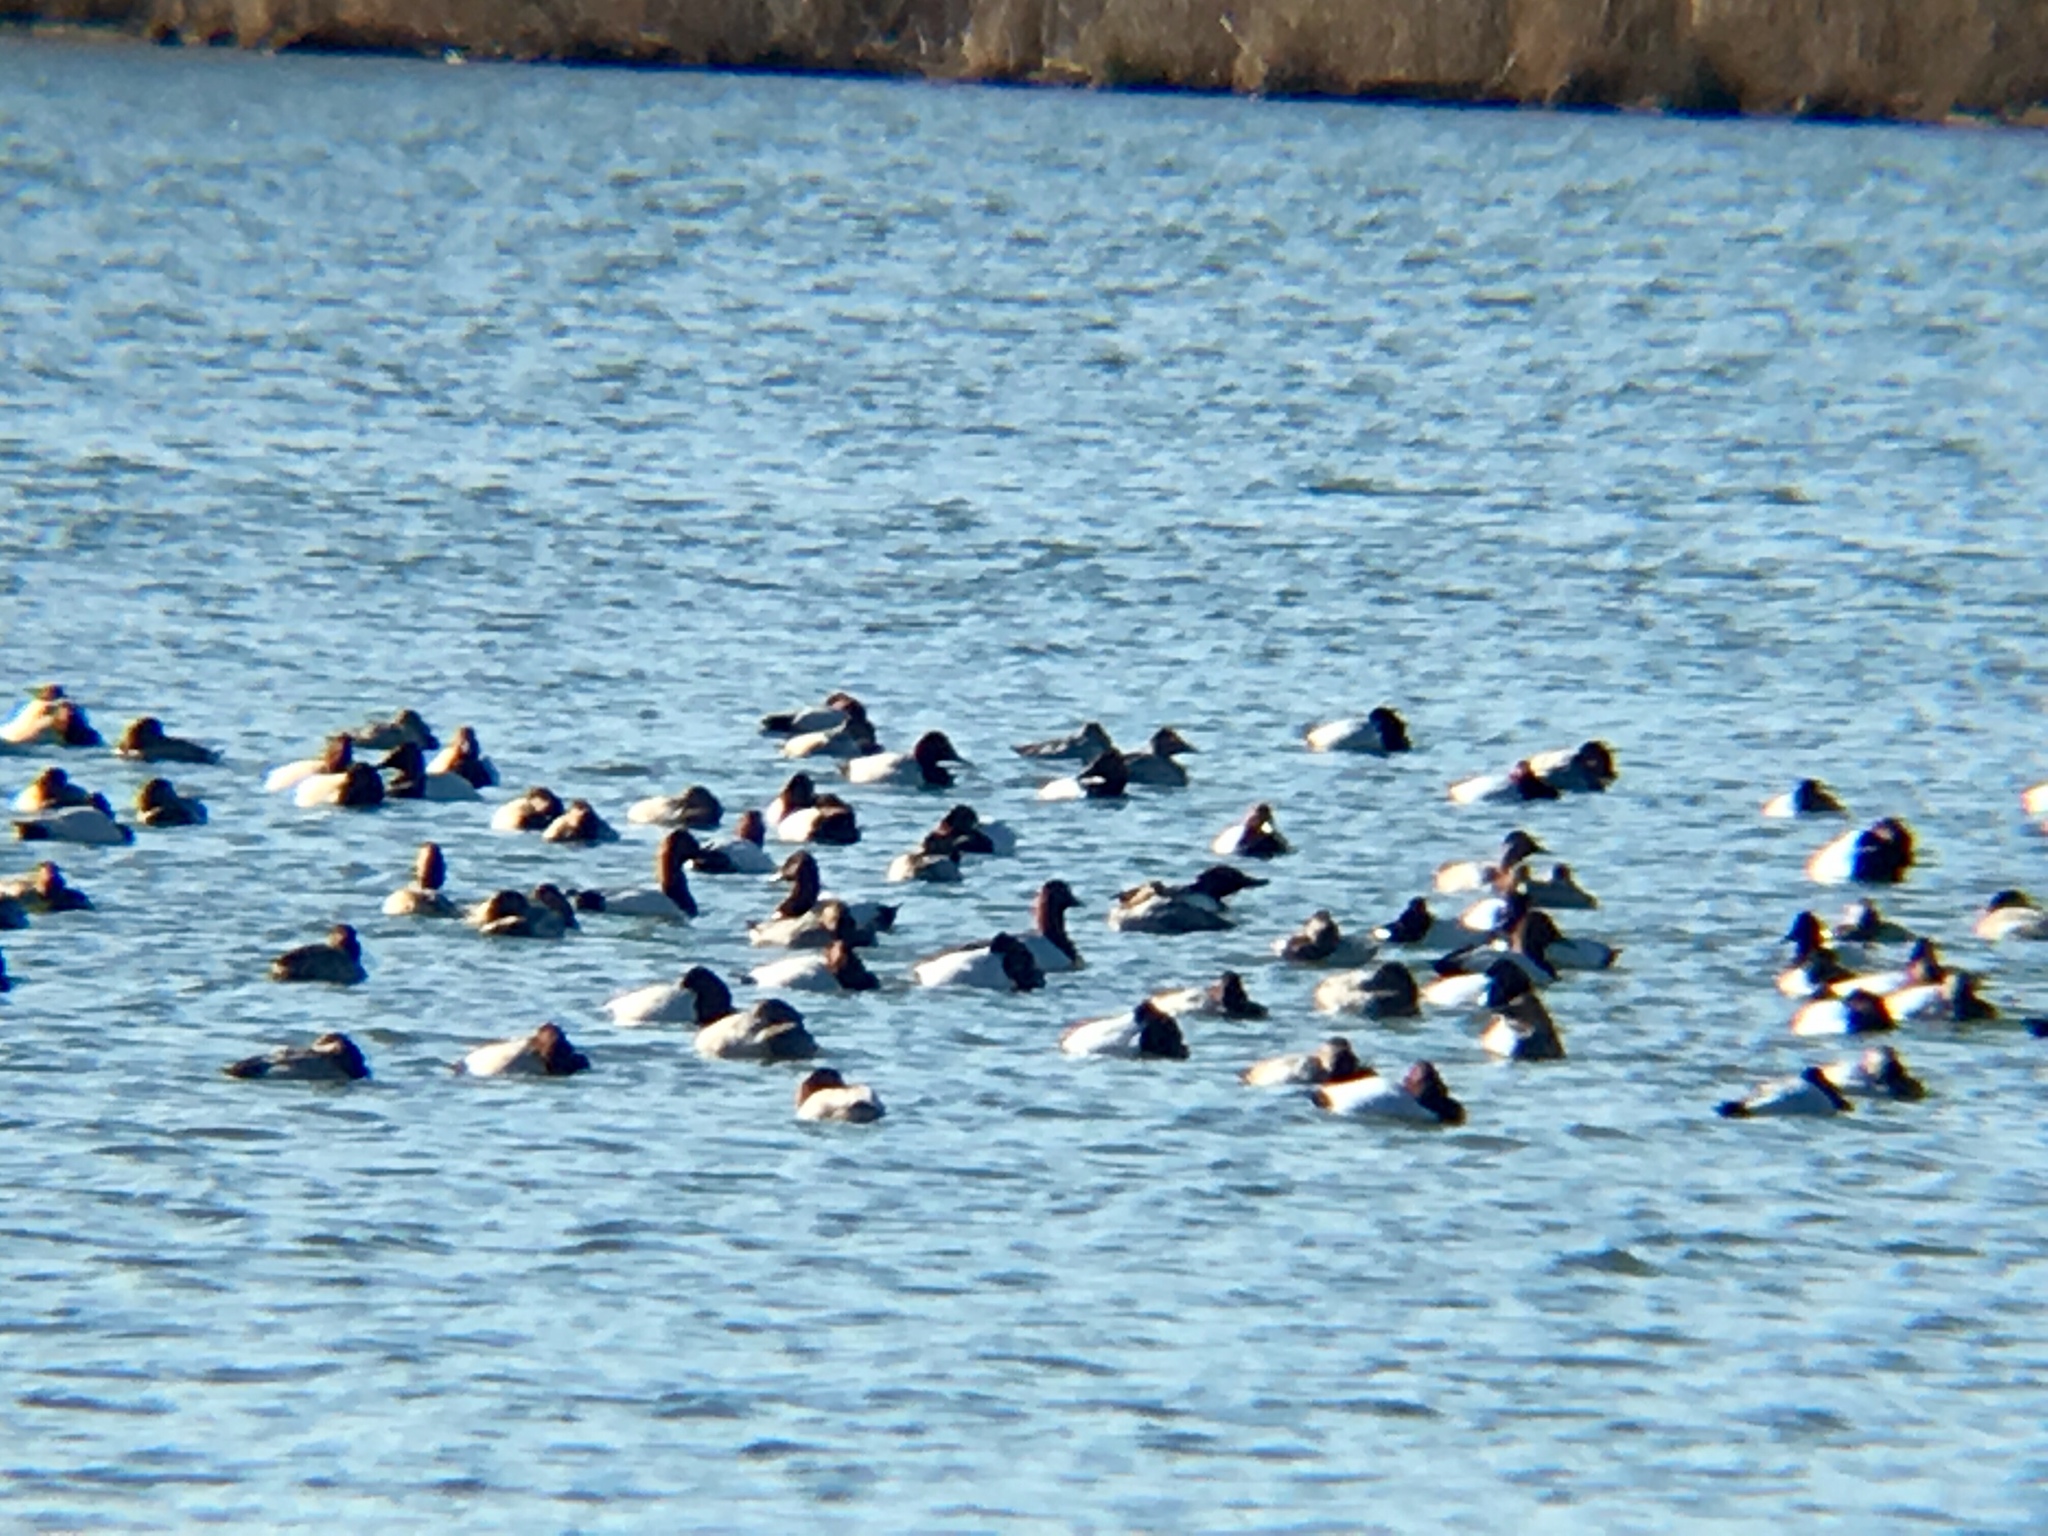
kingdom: Animalia
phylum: Chordata
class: Aves
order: Anseriformes
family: Anatidae
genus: Aythya
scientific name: Aythya valisineria
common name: Canvasback
